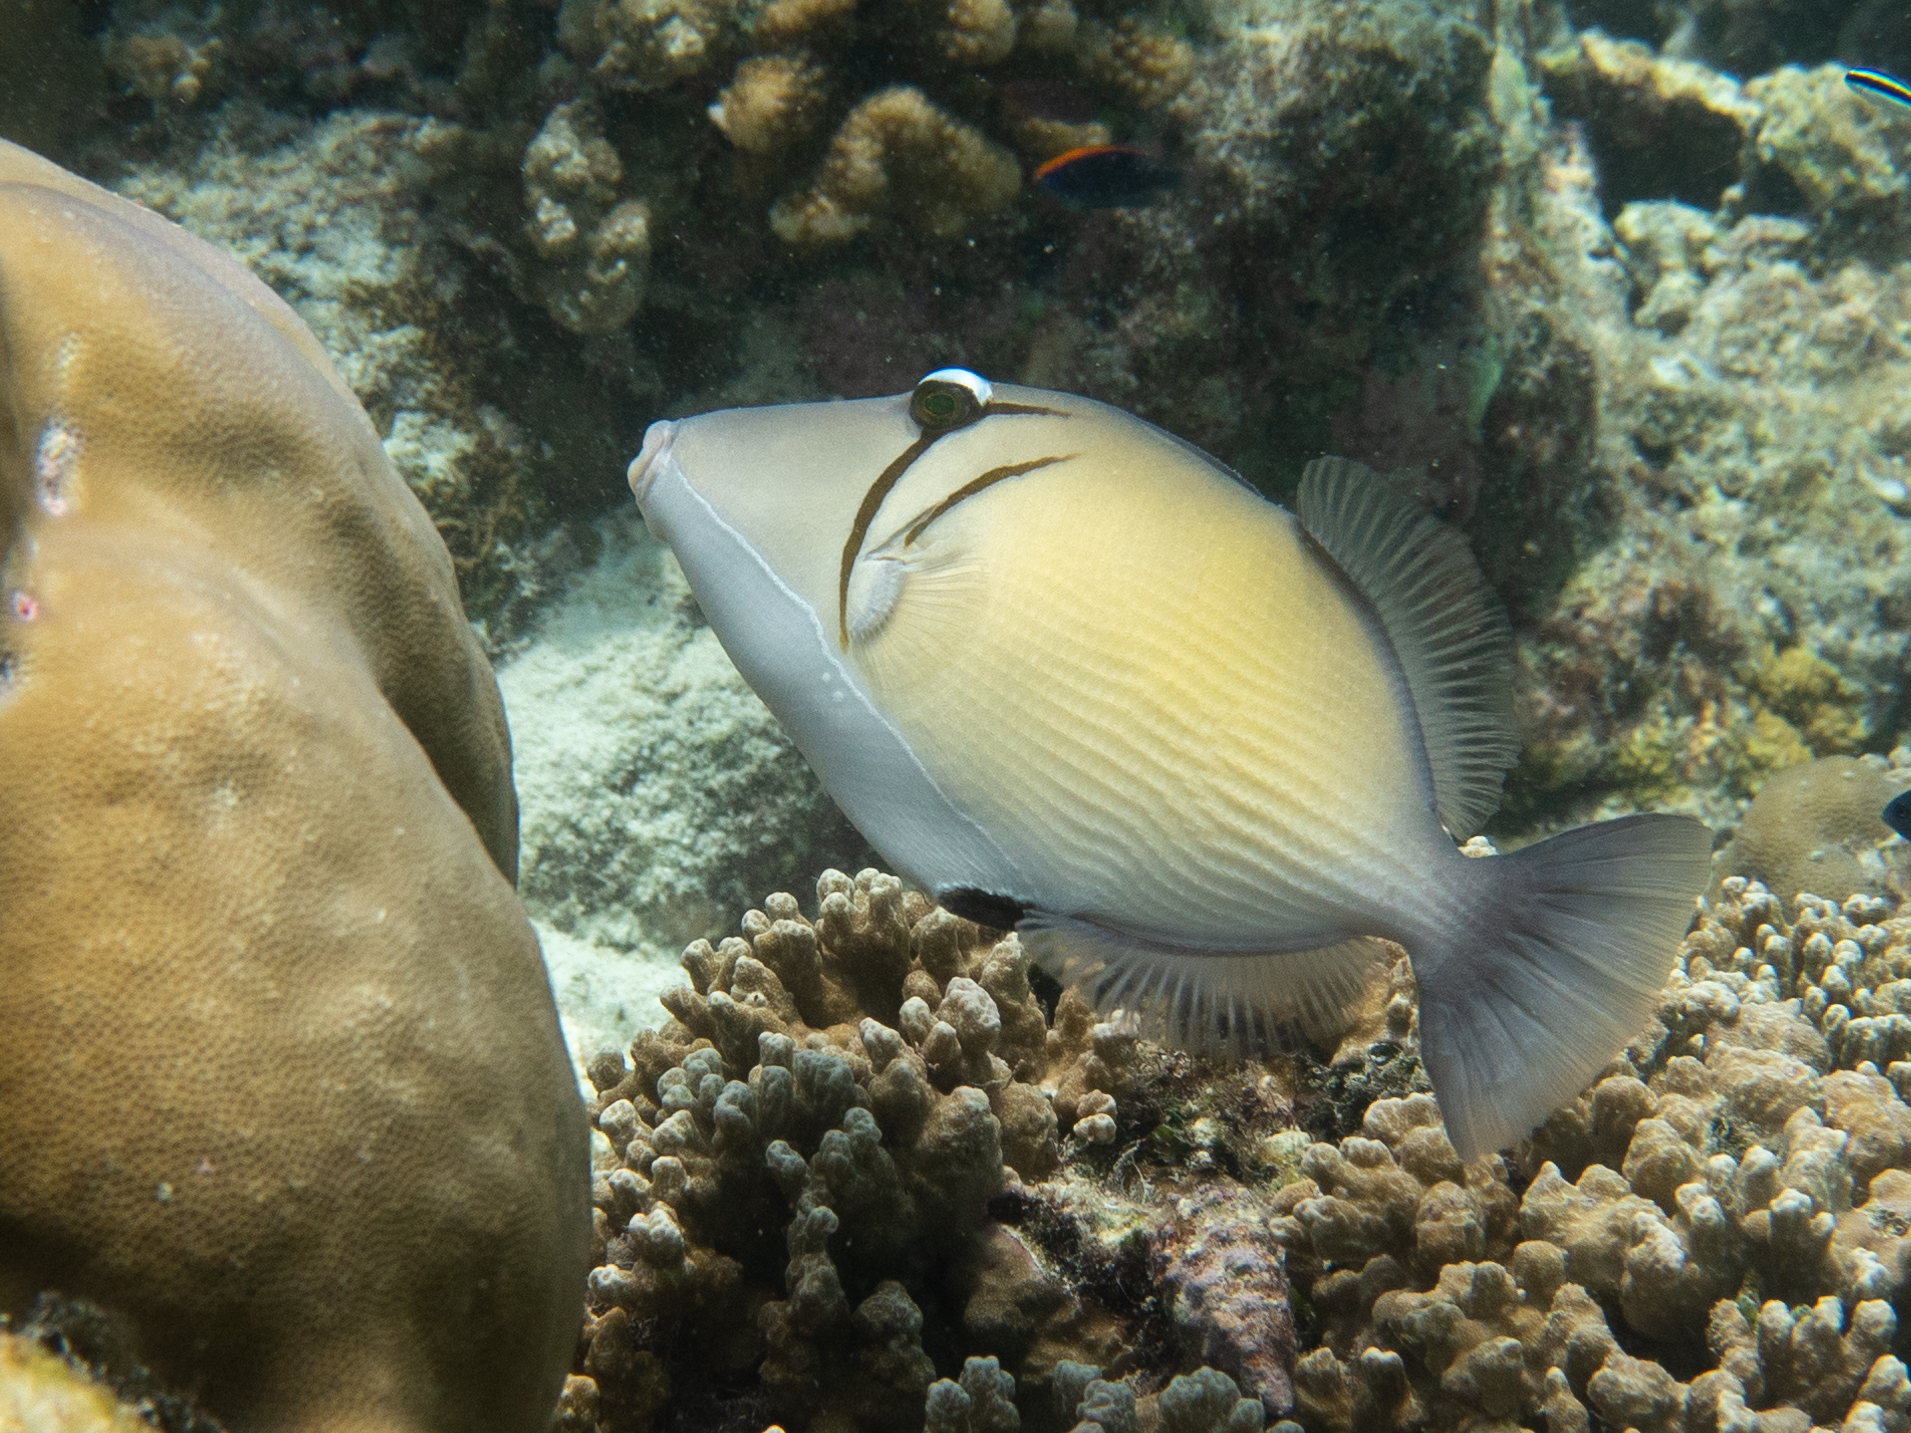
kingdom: Animalia
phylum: Chordata
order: Tetraodontiformes
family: Balistidae
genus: Sufflamen
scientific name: Sufflamen bursa
